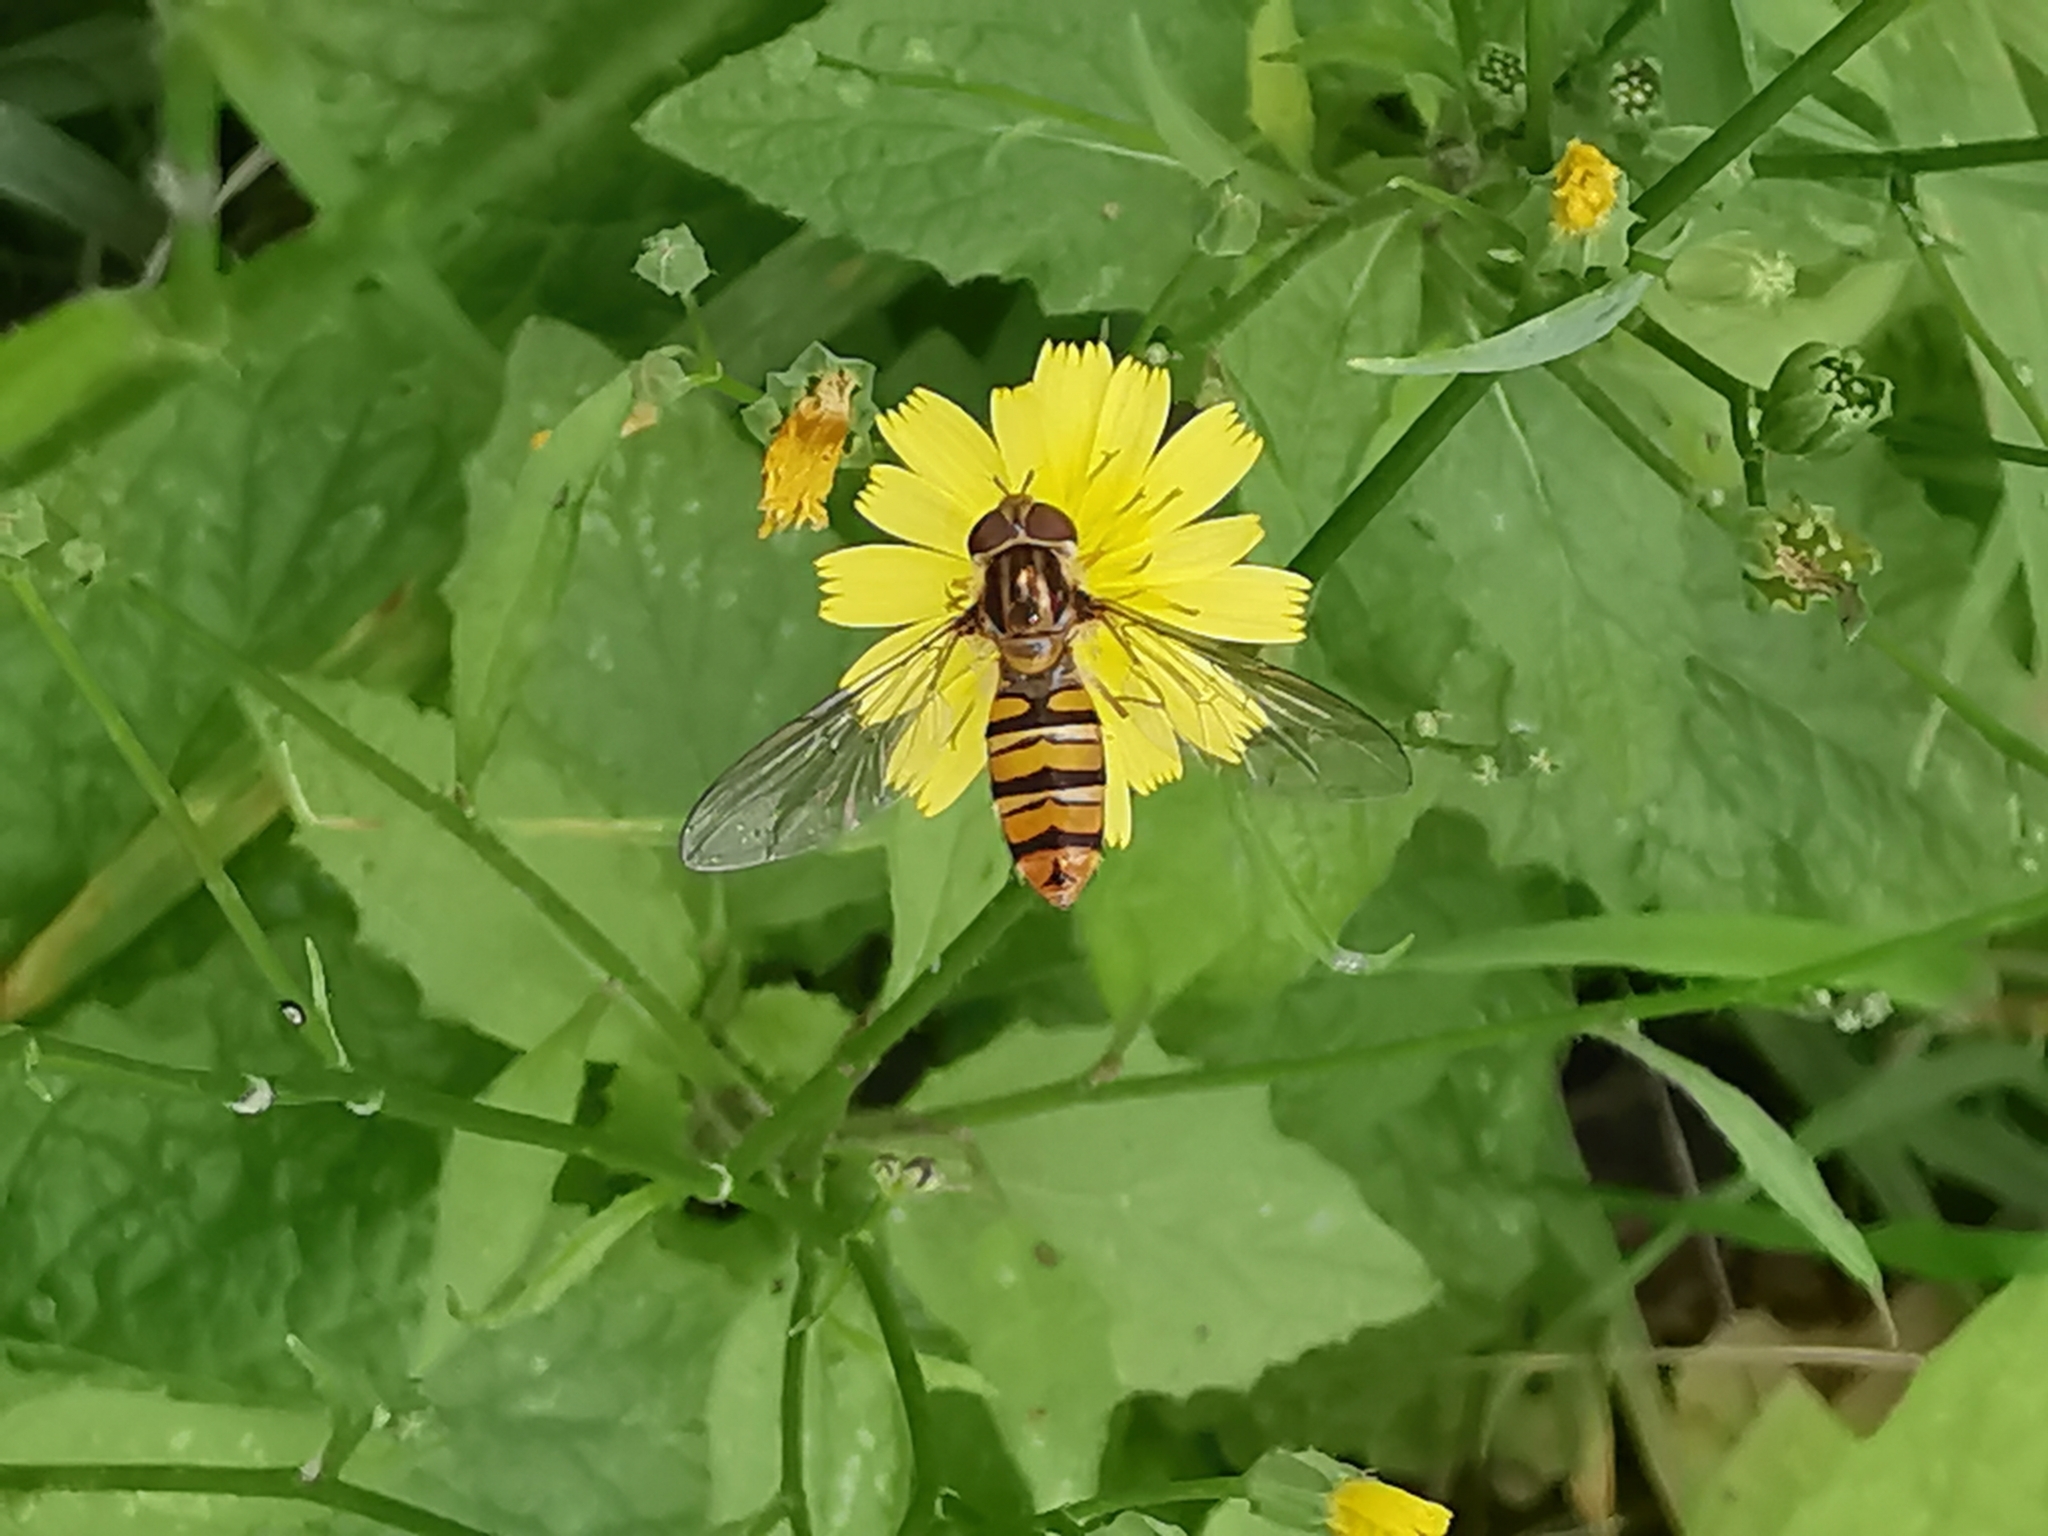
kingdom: Animalia
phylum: Arthropoda
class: Insecta
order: Diptera
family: Syrphidae
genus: Episyrphus
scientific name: Episyrphus balteatus
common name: Marmalade hoverfly
